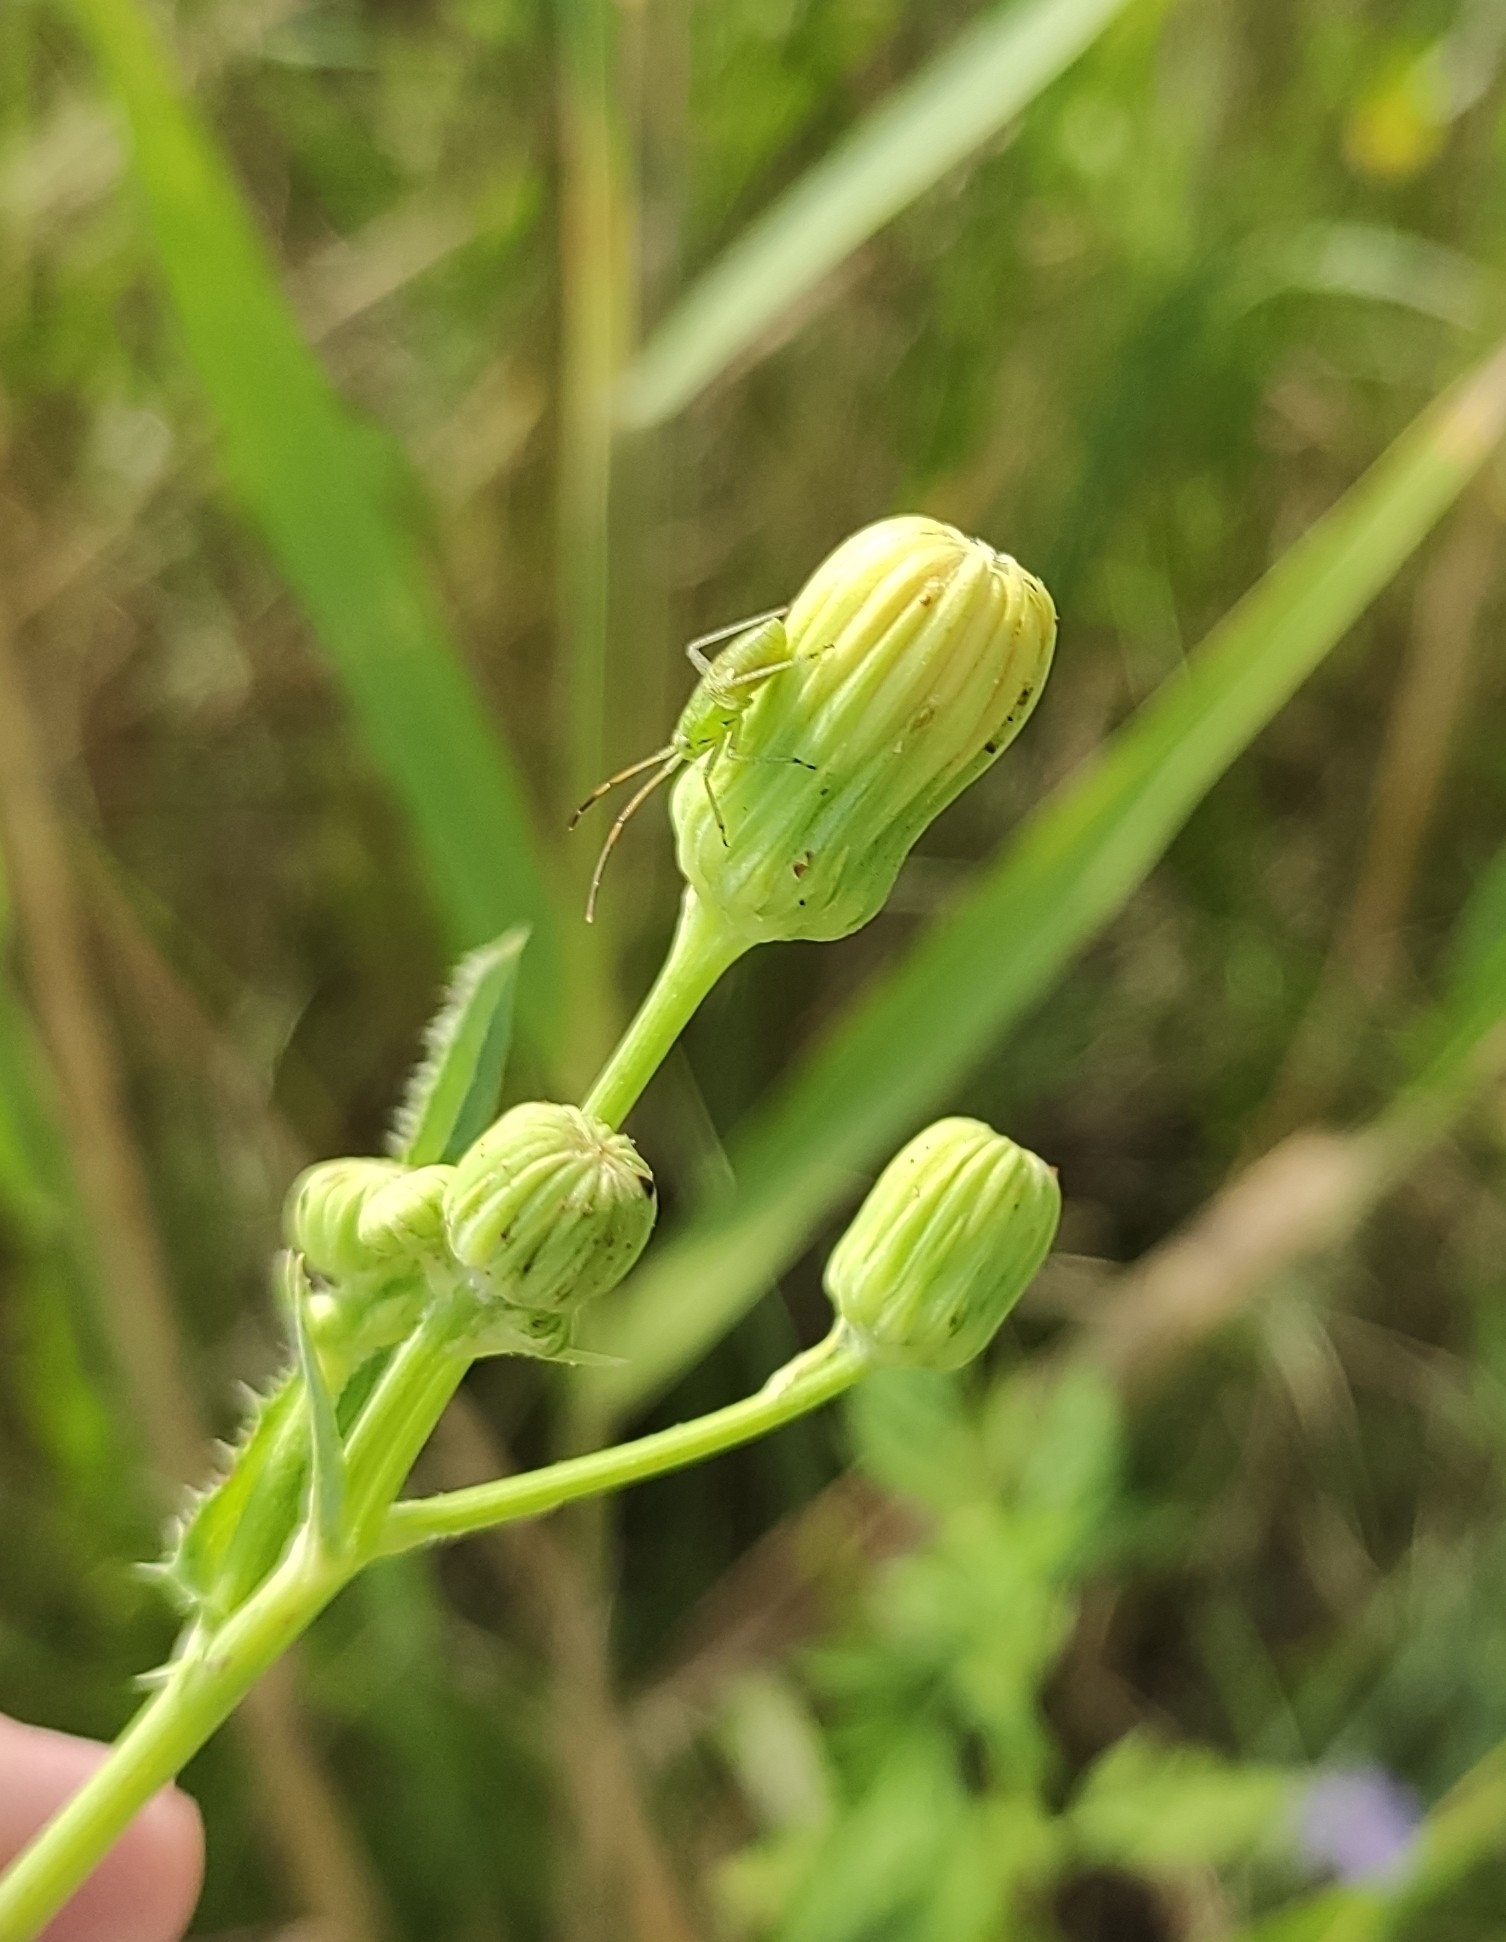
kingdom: Plantae
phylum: Tracheophyta
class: Magnoliopsida
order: Asterales
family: Asteraceae
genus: Sonchus
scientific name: Sonchus arvensis
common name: Perennial sow-thistle
